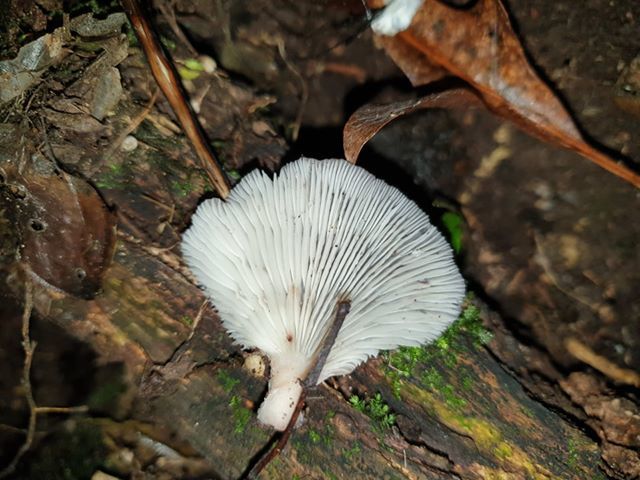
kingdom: Fungi
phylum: Basidiomycota
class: Agaricomycetes
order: Agaricales
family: Mycenaceae
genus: Panellus
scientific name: Panellus longinquus
